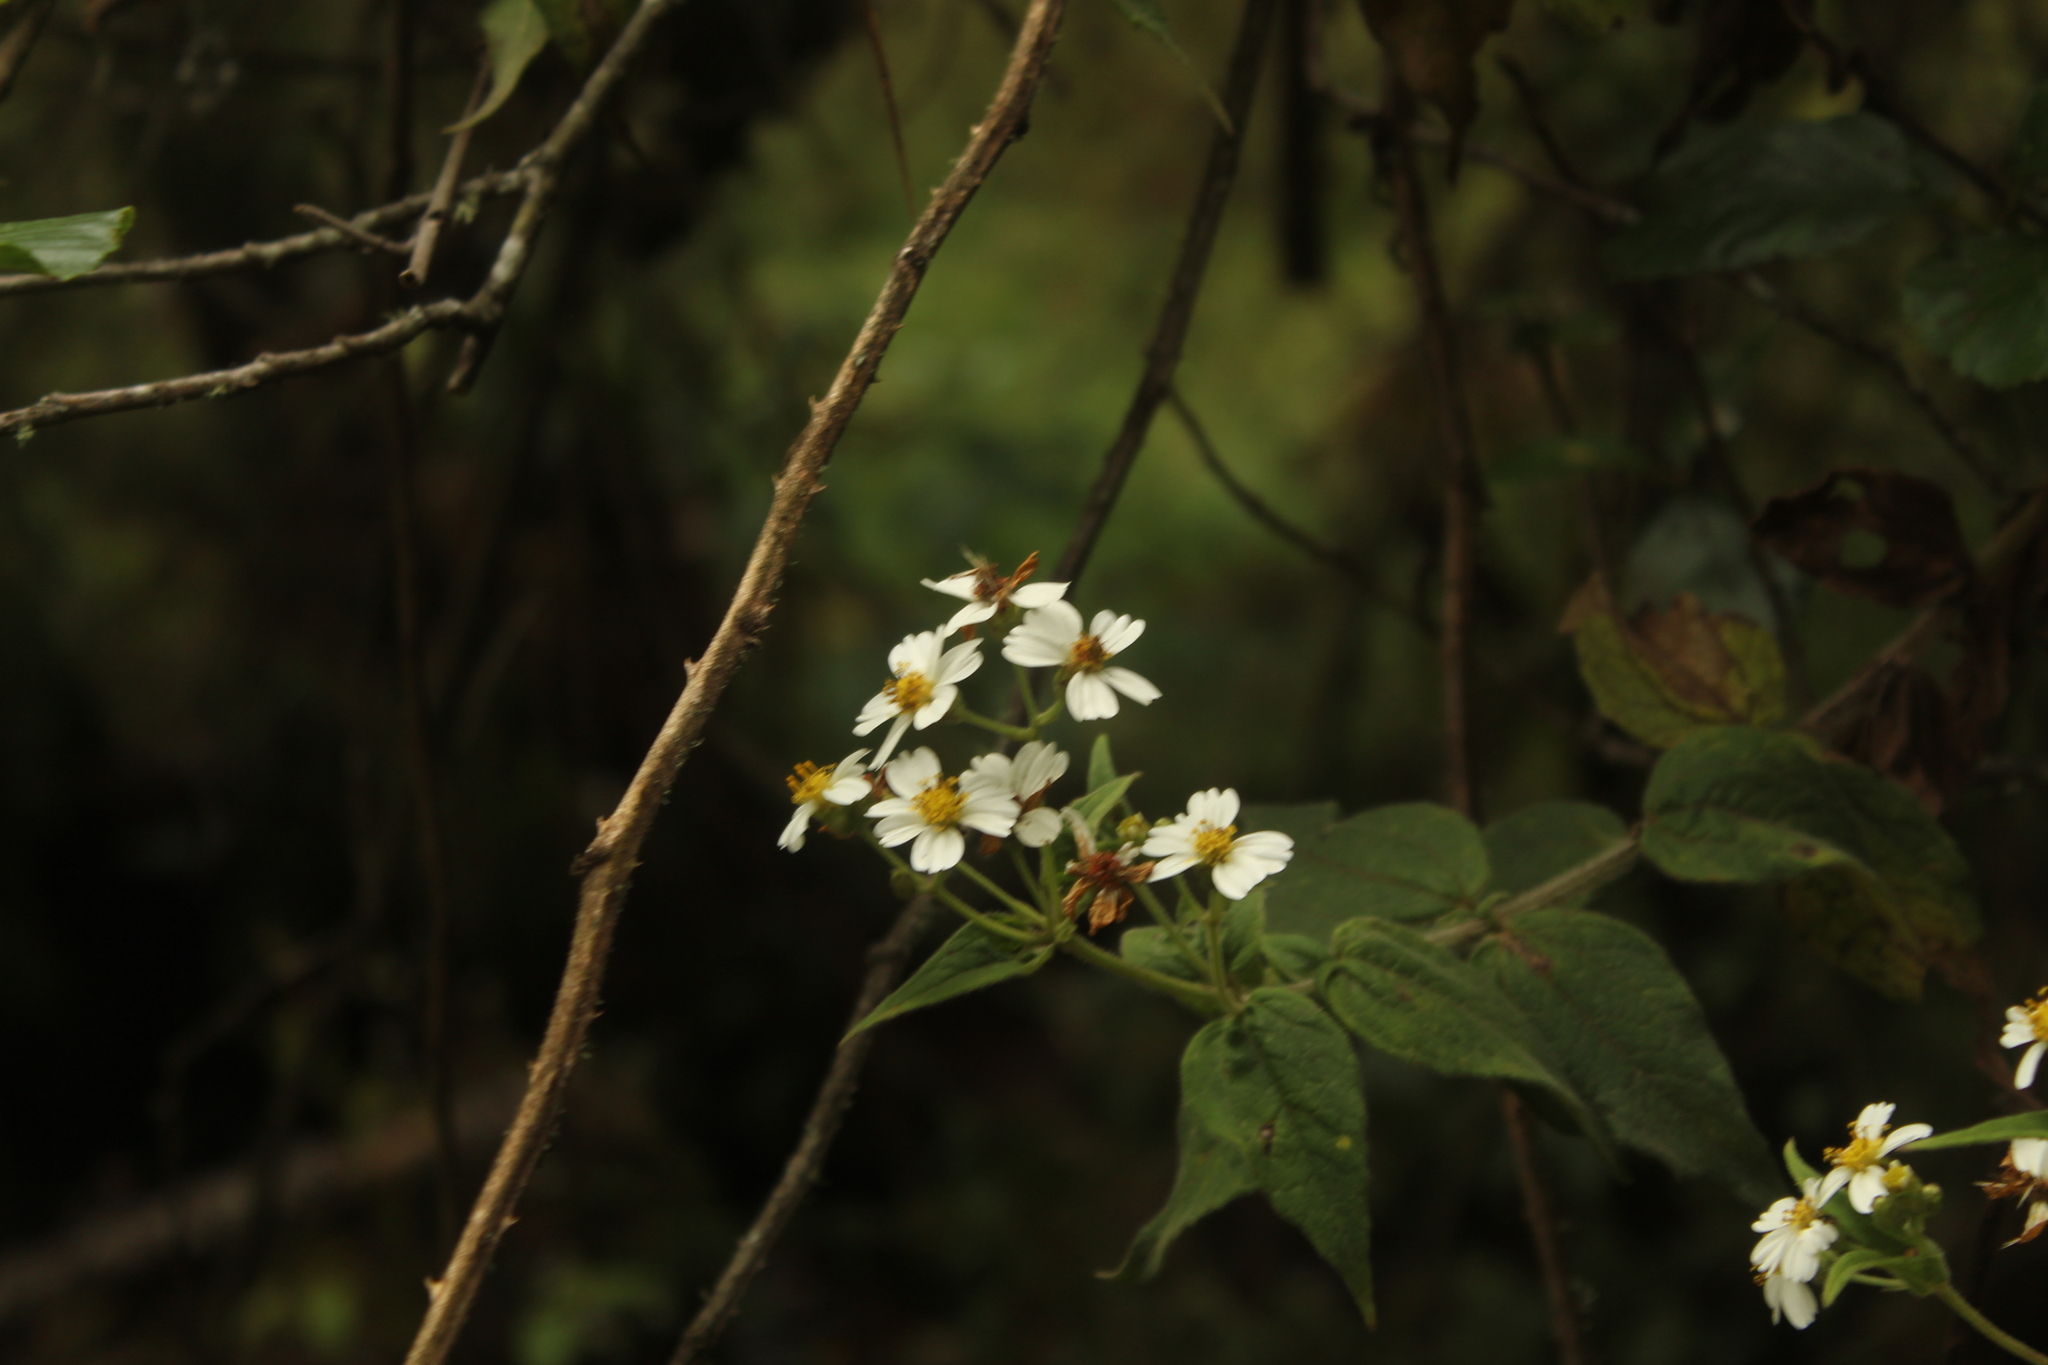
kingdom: Plantae
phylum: Tracheophyta
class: Magnoliopsida
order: Asterales
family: Asteraceae
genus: Alloispermum
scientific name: Alloispermum caracasanum
